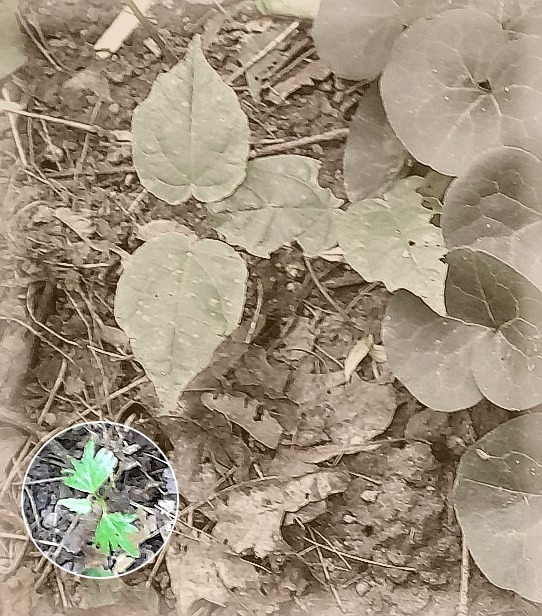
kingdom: Plantae
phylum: Tracheophyta
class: Magnoliopsida
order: Malvales
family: Malvaceae
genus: Tilia
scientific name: Tilia cordata
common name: Small-leaved lime
